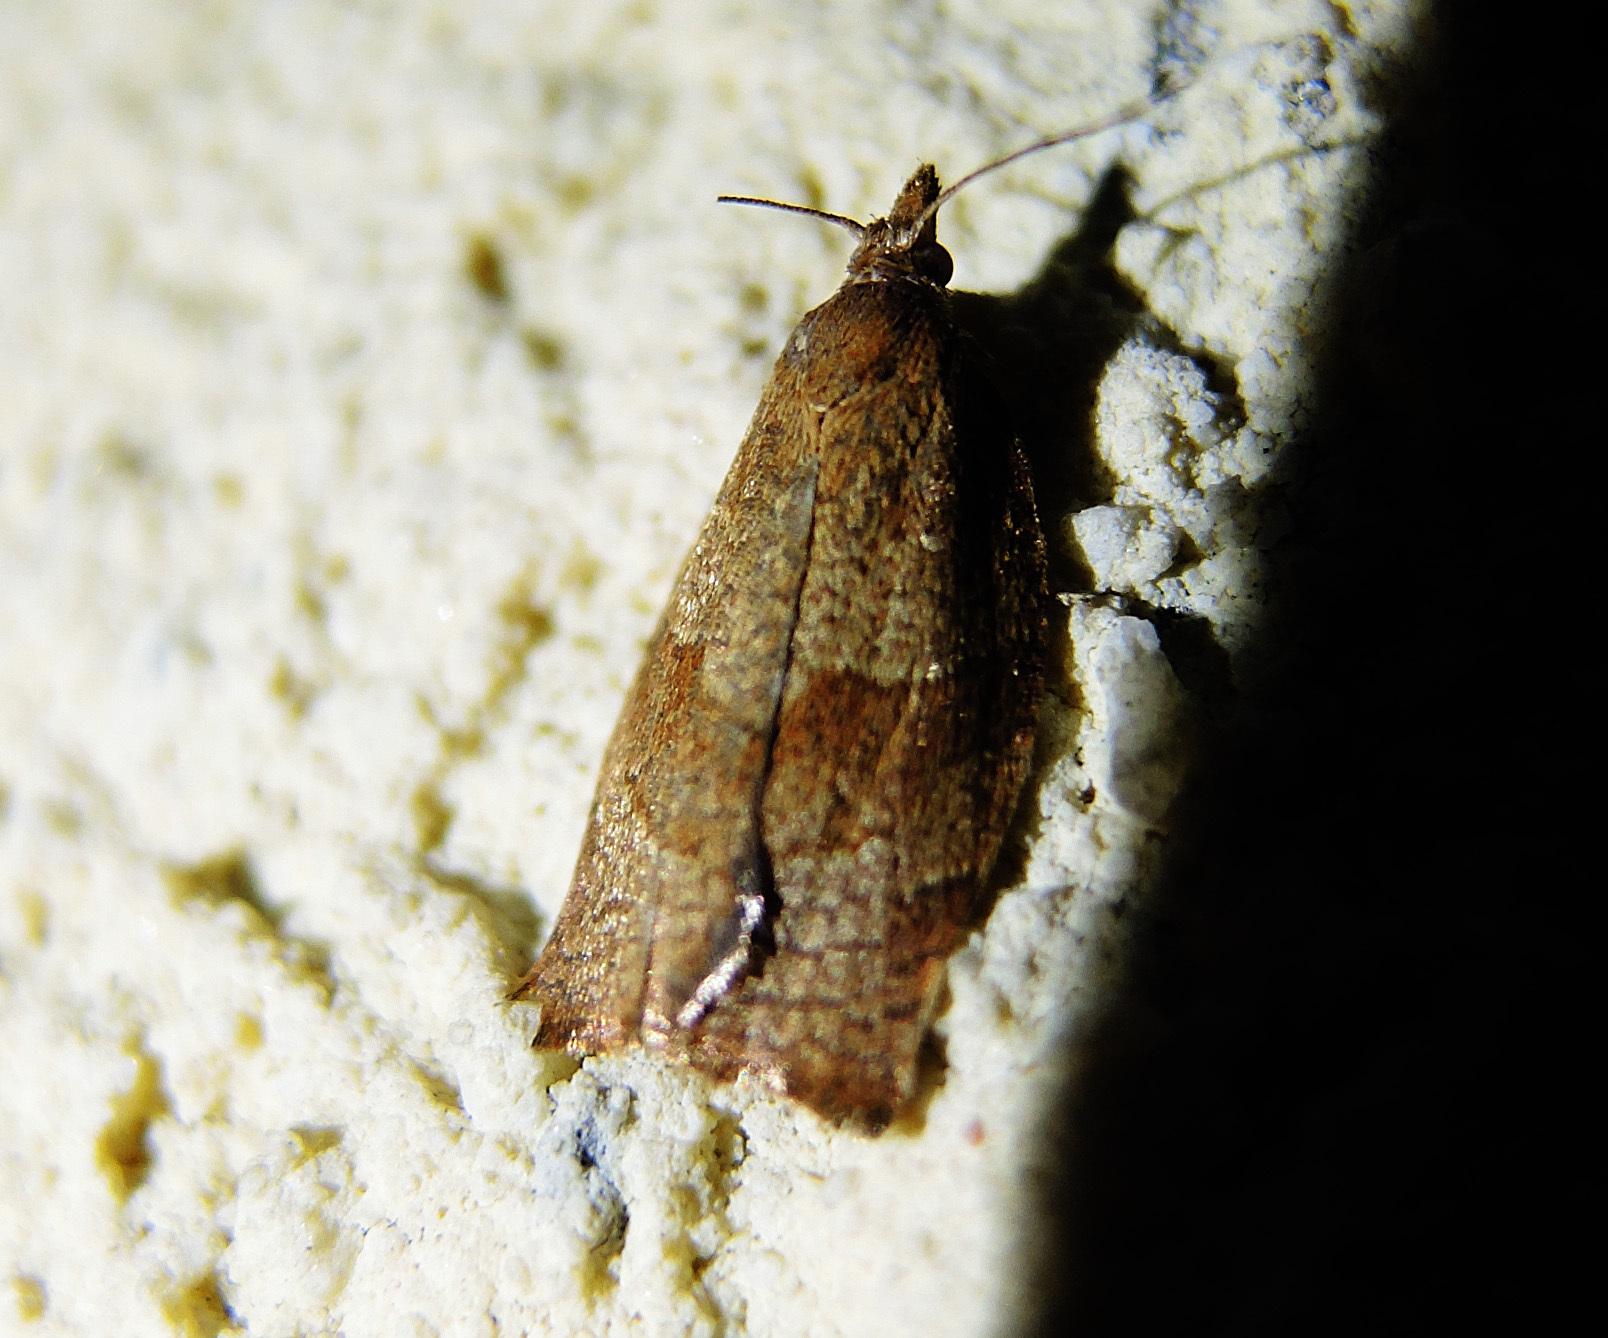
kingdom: Animalia
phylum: Arthropoda
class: Insecta
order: Lepidoptera
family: Tortricidae
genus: Pandemis
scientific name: Pandemis heparana
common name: Dark fruit-tree tortrix
